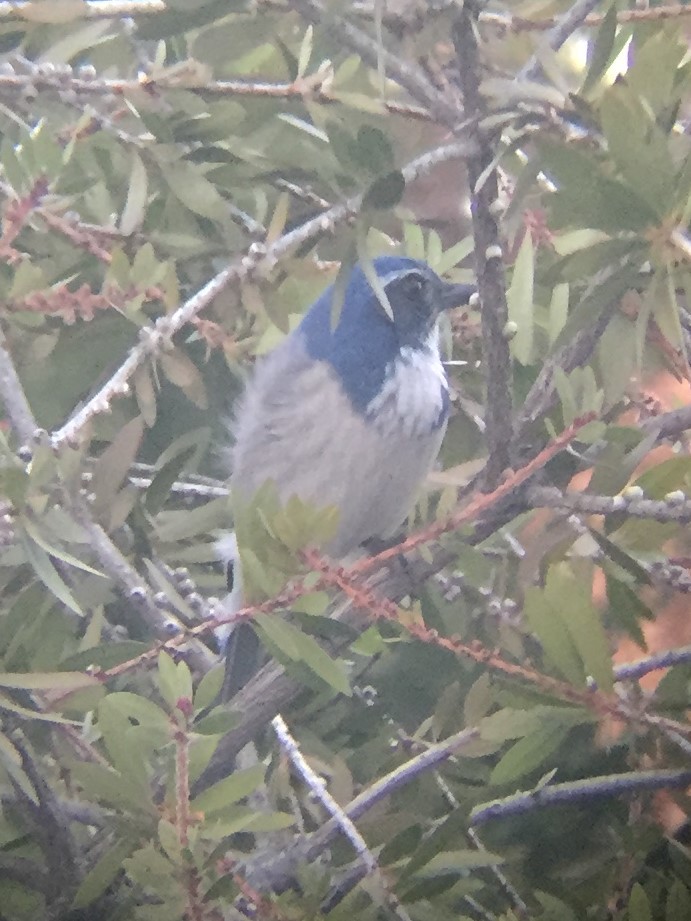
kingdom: Animalia
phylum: Chordata
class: Aves
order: Passeriformes
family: Corvidae
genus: Aphelocoma
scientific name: Aphelocoma californica
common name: California scrub-jay
